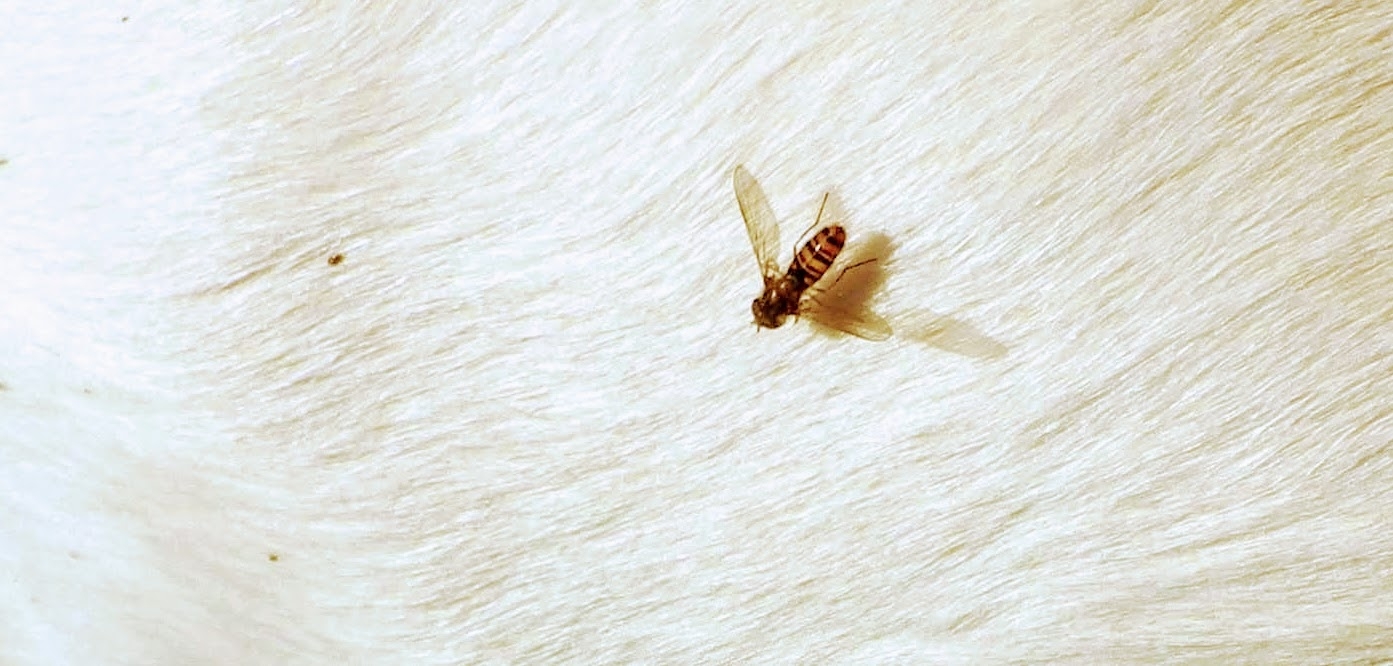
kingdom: Animalia
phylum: Arthropoda
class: Insecta
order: Diptera
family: Syrphidae
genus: Episyrphus
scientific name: Episyrphus balteatus
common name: Marmalade hoverfly
